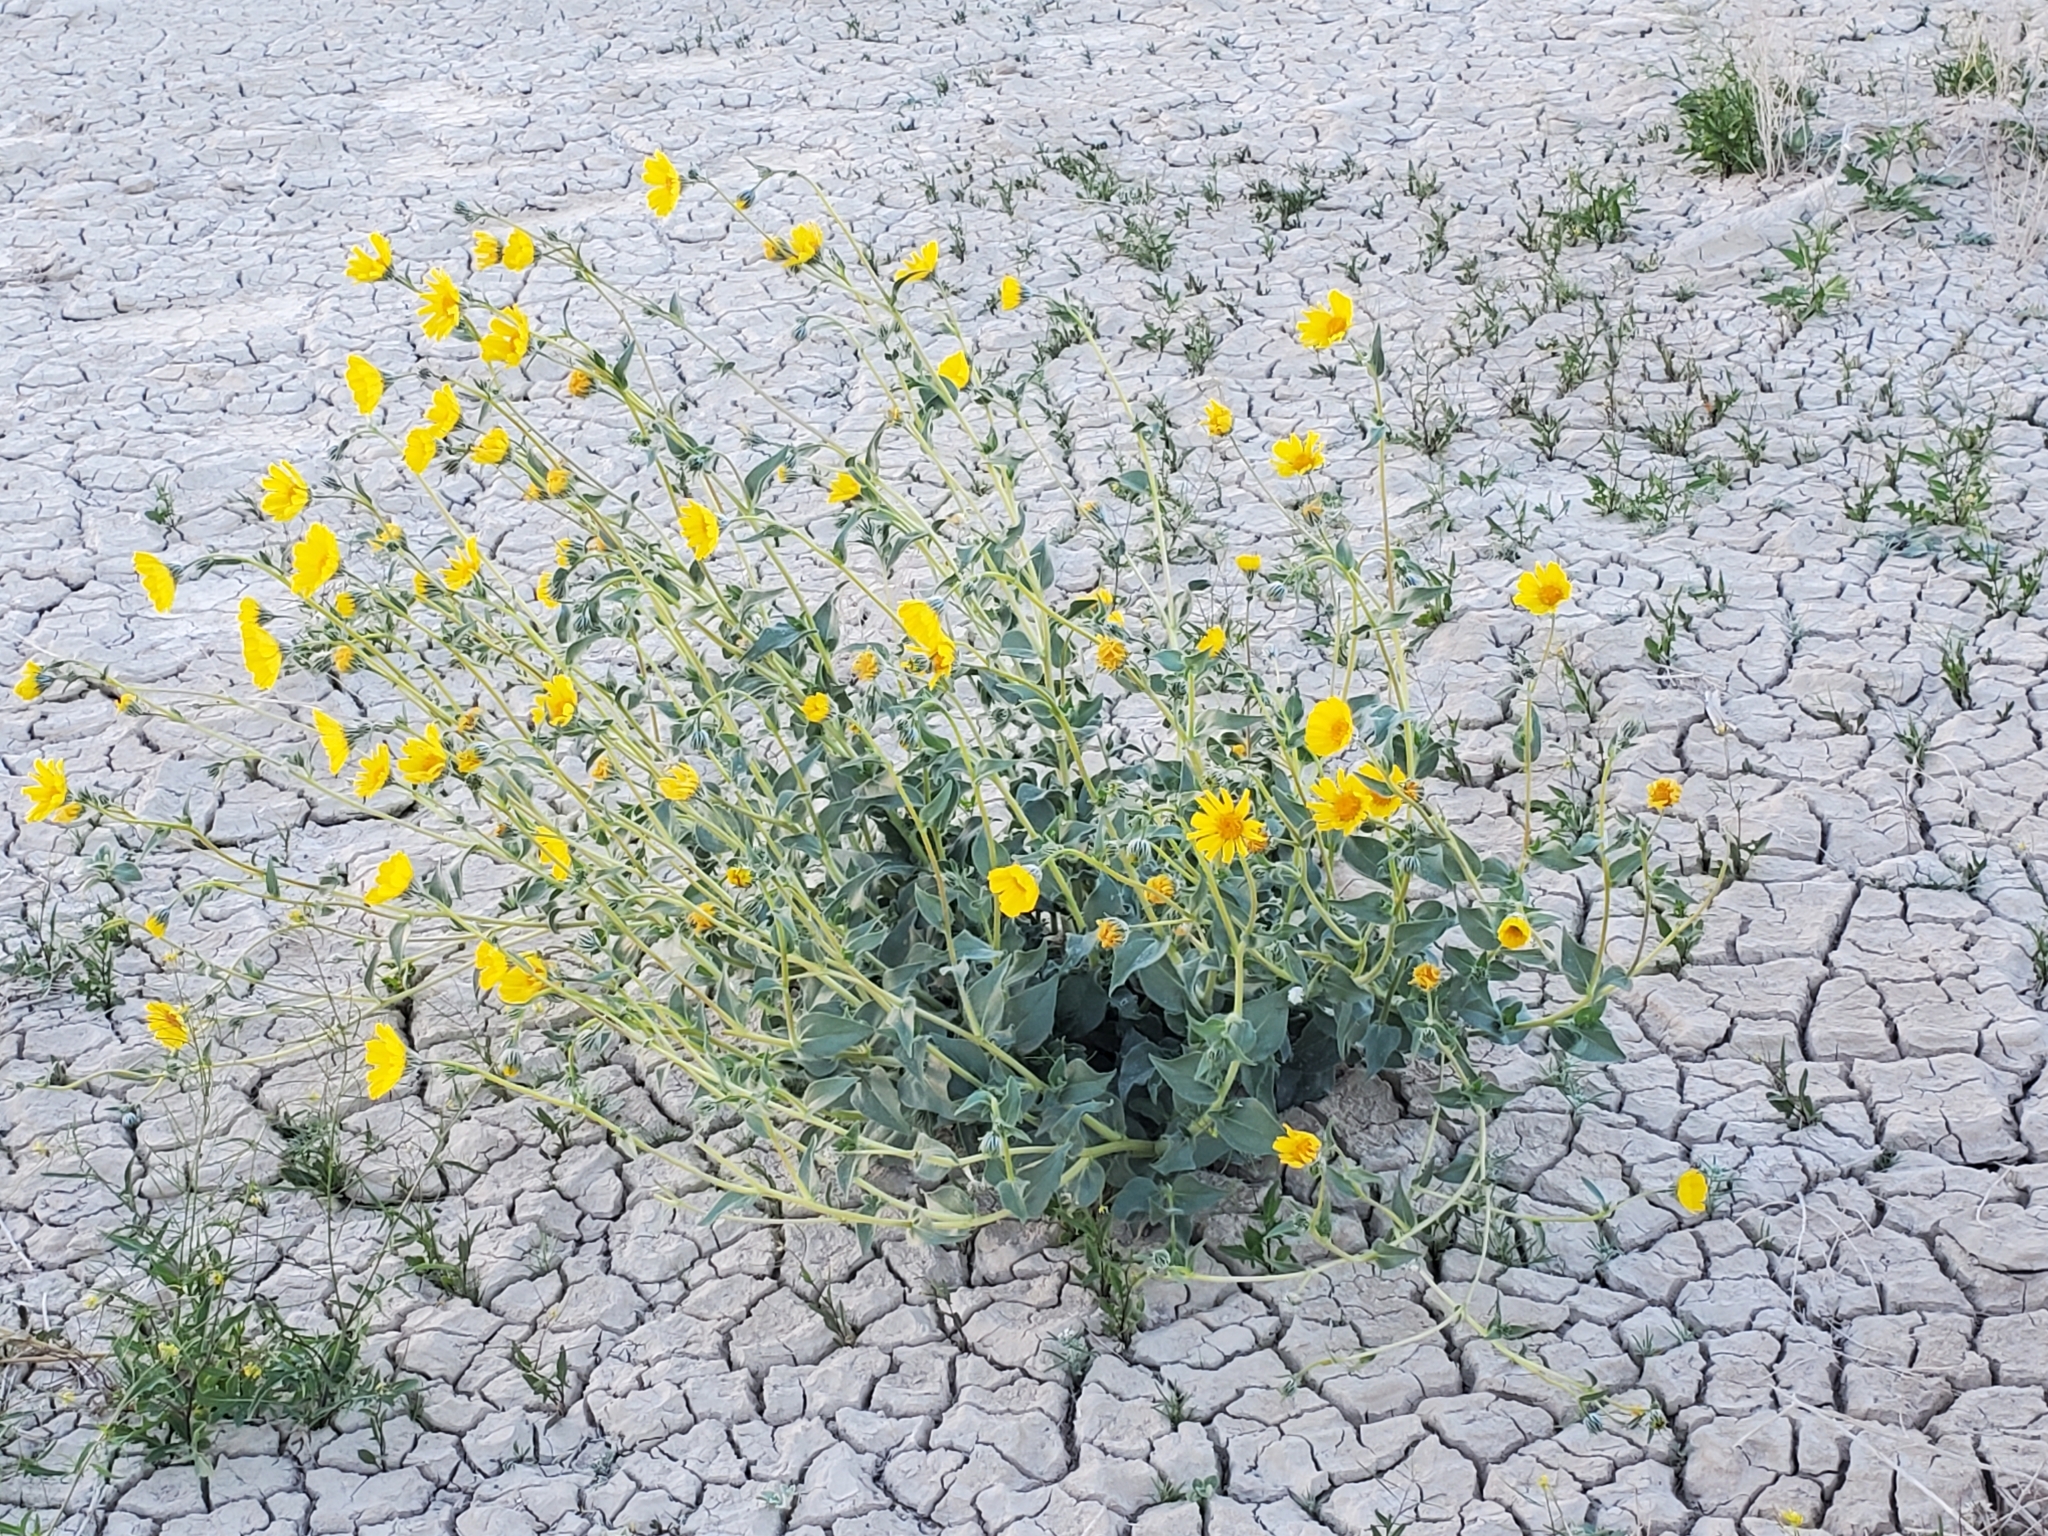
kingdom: Plantae
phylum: Tracheophyta
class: Magnoliopsida
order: Asterales
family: Asteraceae
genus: Geraea
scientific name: Geraea canescens
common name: Desert-gold
